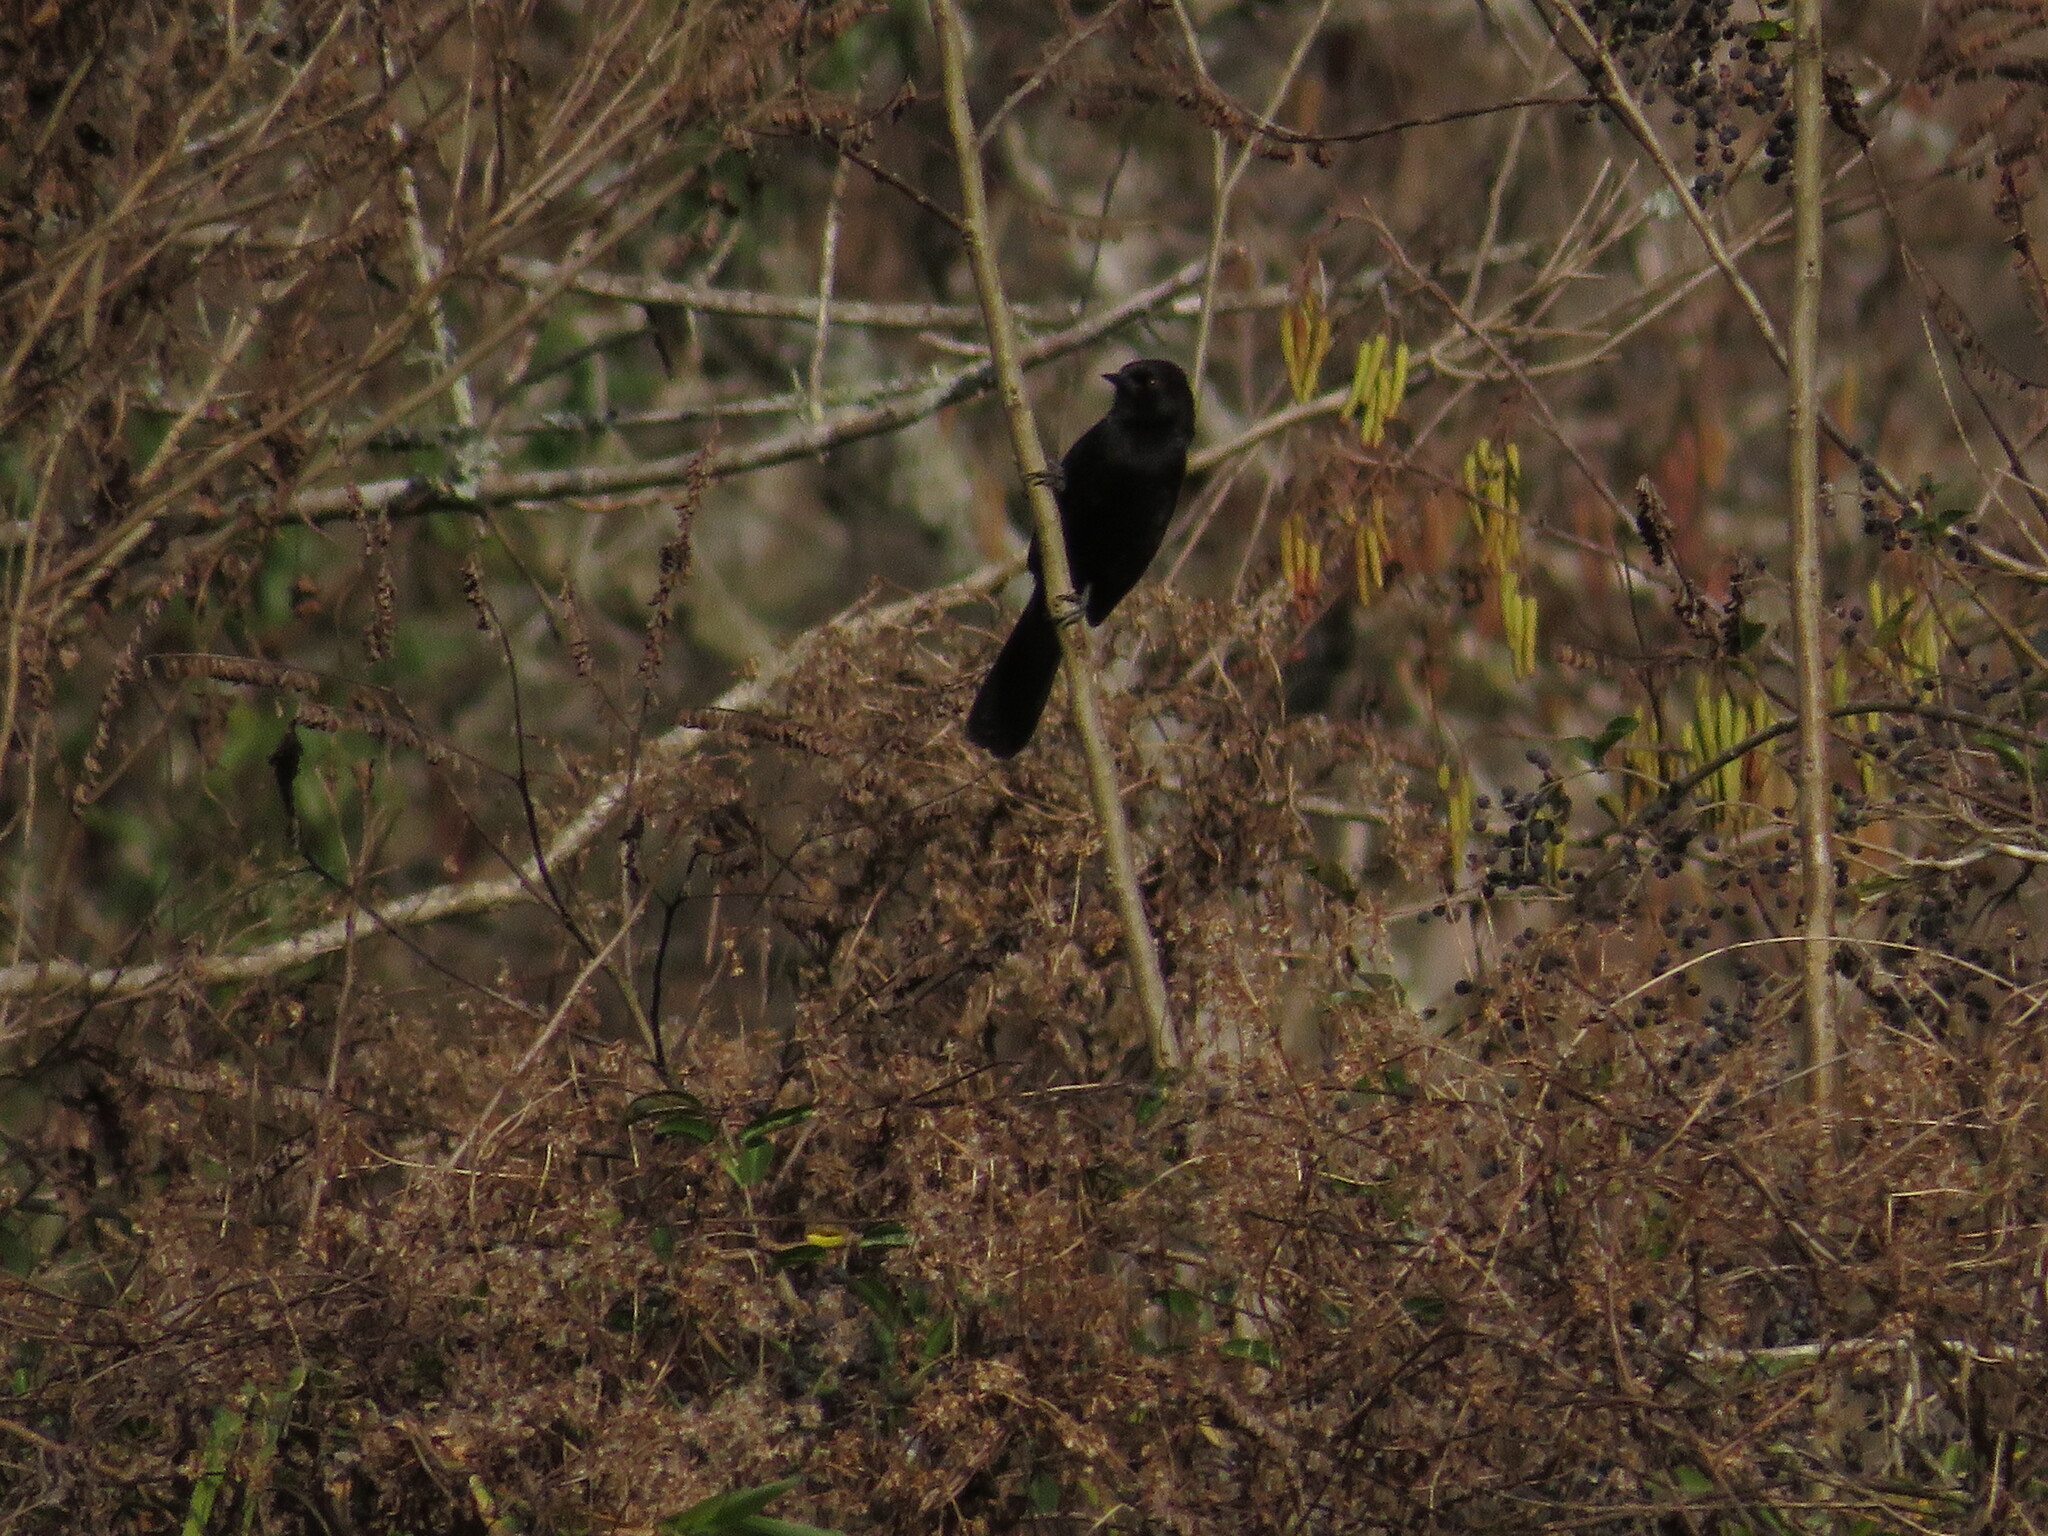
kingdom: Animalia
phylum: Chordata
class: Aves
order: Passeriformes
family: Icteridae
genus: Icterus
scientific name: Icterus cayanensis
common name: Epaulet oriole
